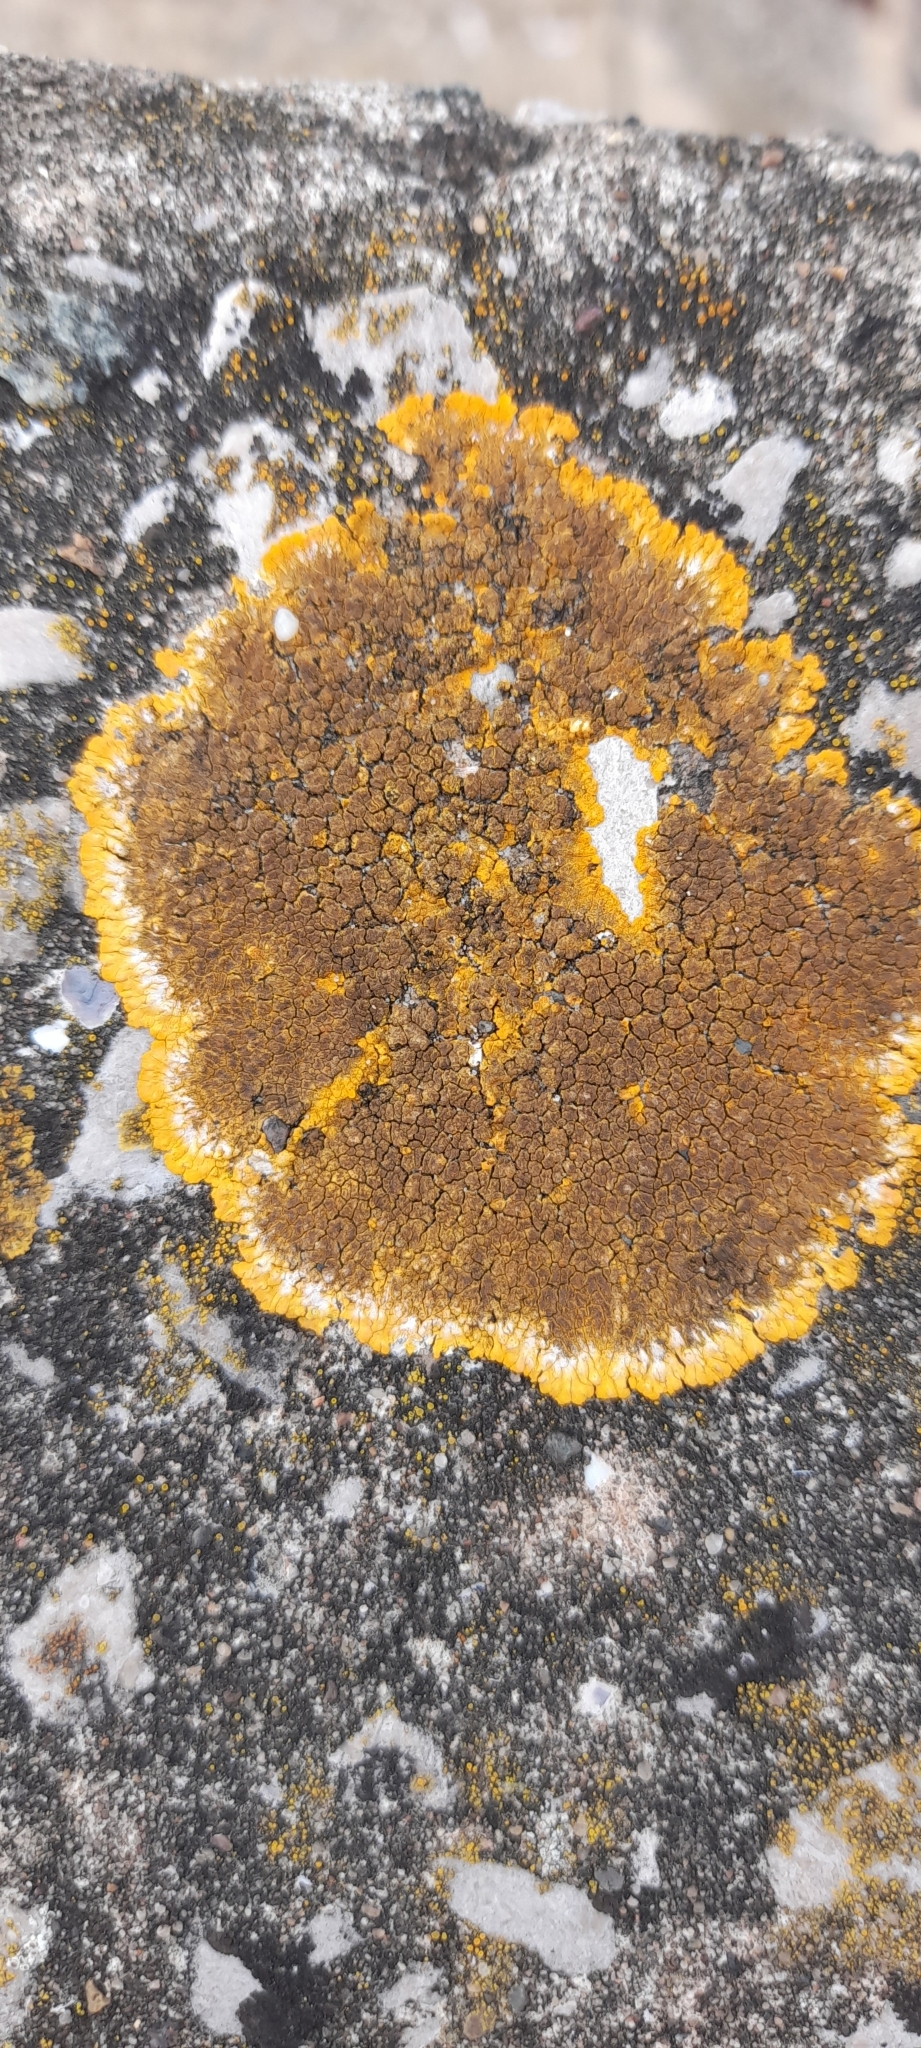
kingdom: Fungi
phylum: Ascomycota
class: Lecanoromycetes
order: Teloschistales
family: Teloschistaceae
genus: Variospora
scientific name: Variospora aurantia
